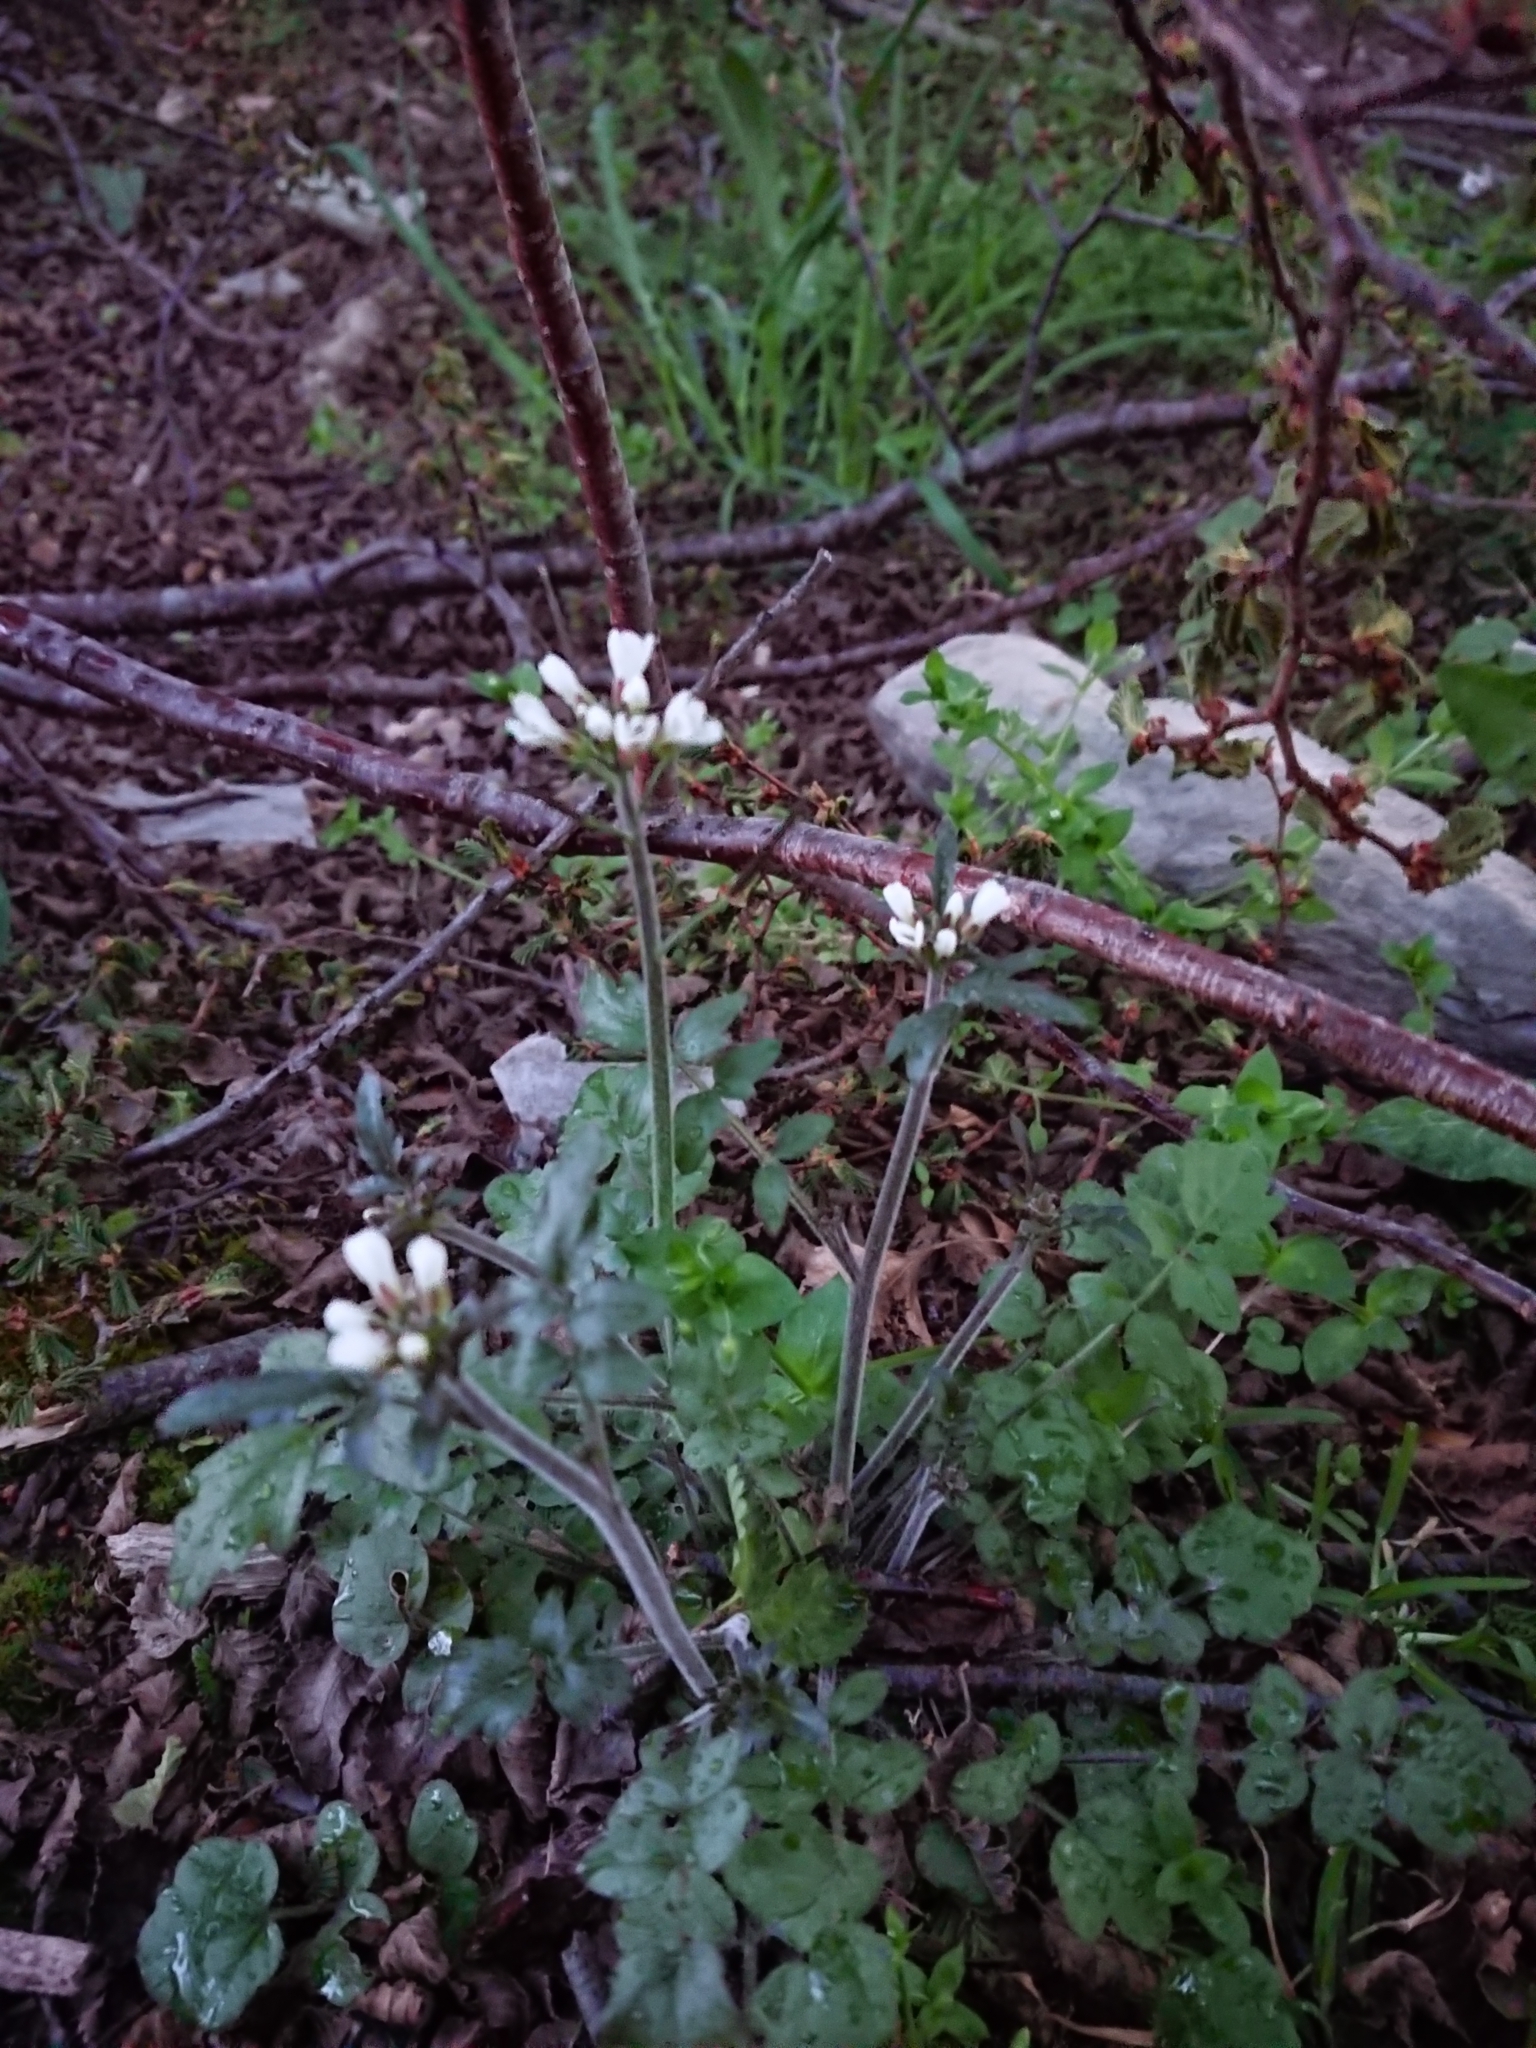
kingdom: Plantae
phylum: Tracheophyta
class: Magnoliopsida
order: Brassicales
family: Brassicaceae
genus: Cardamine
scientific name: Cardamine glacialis
